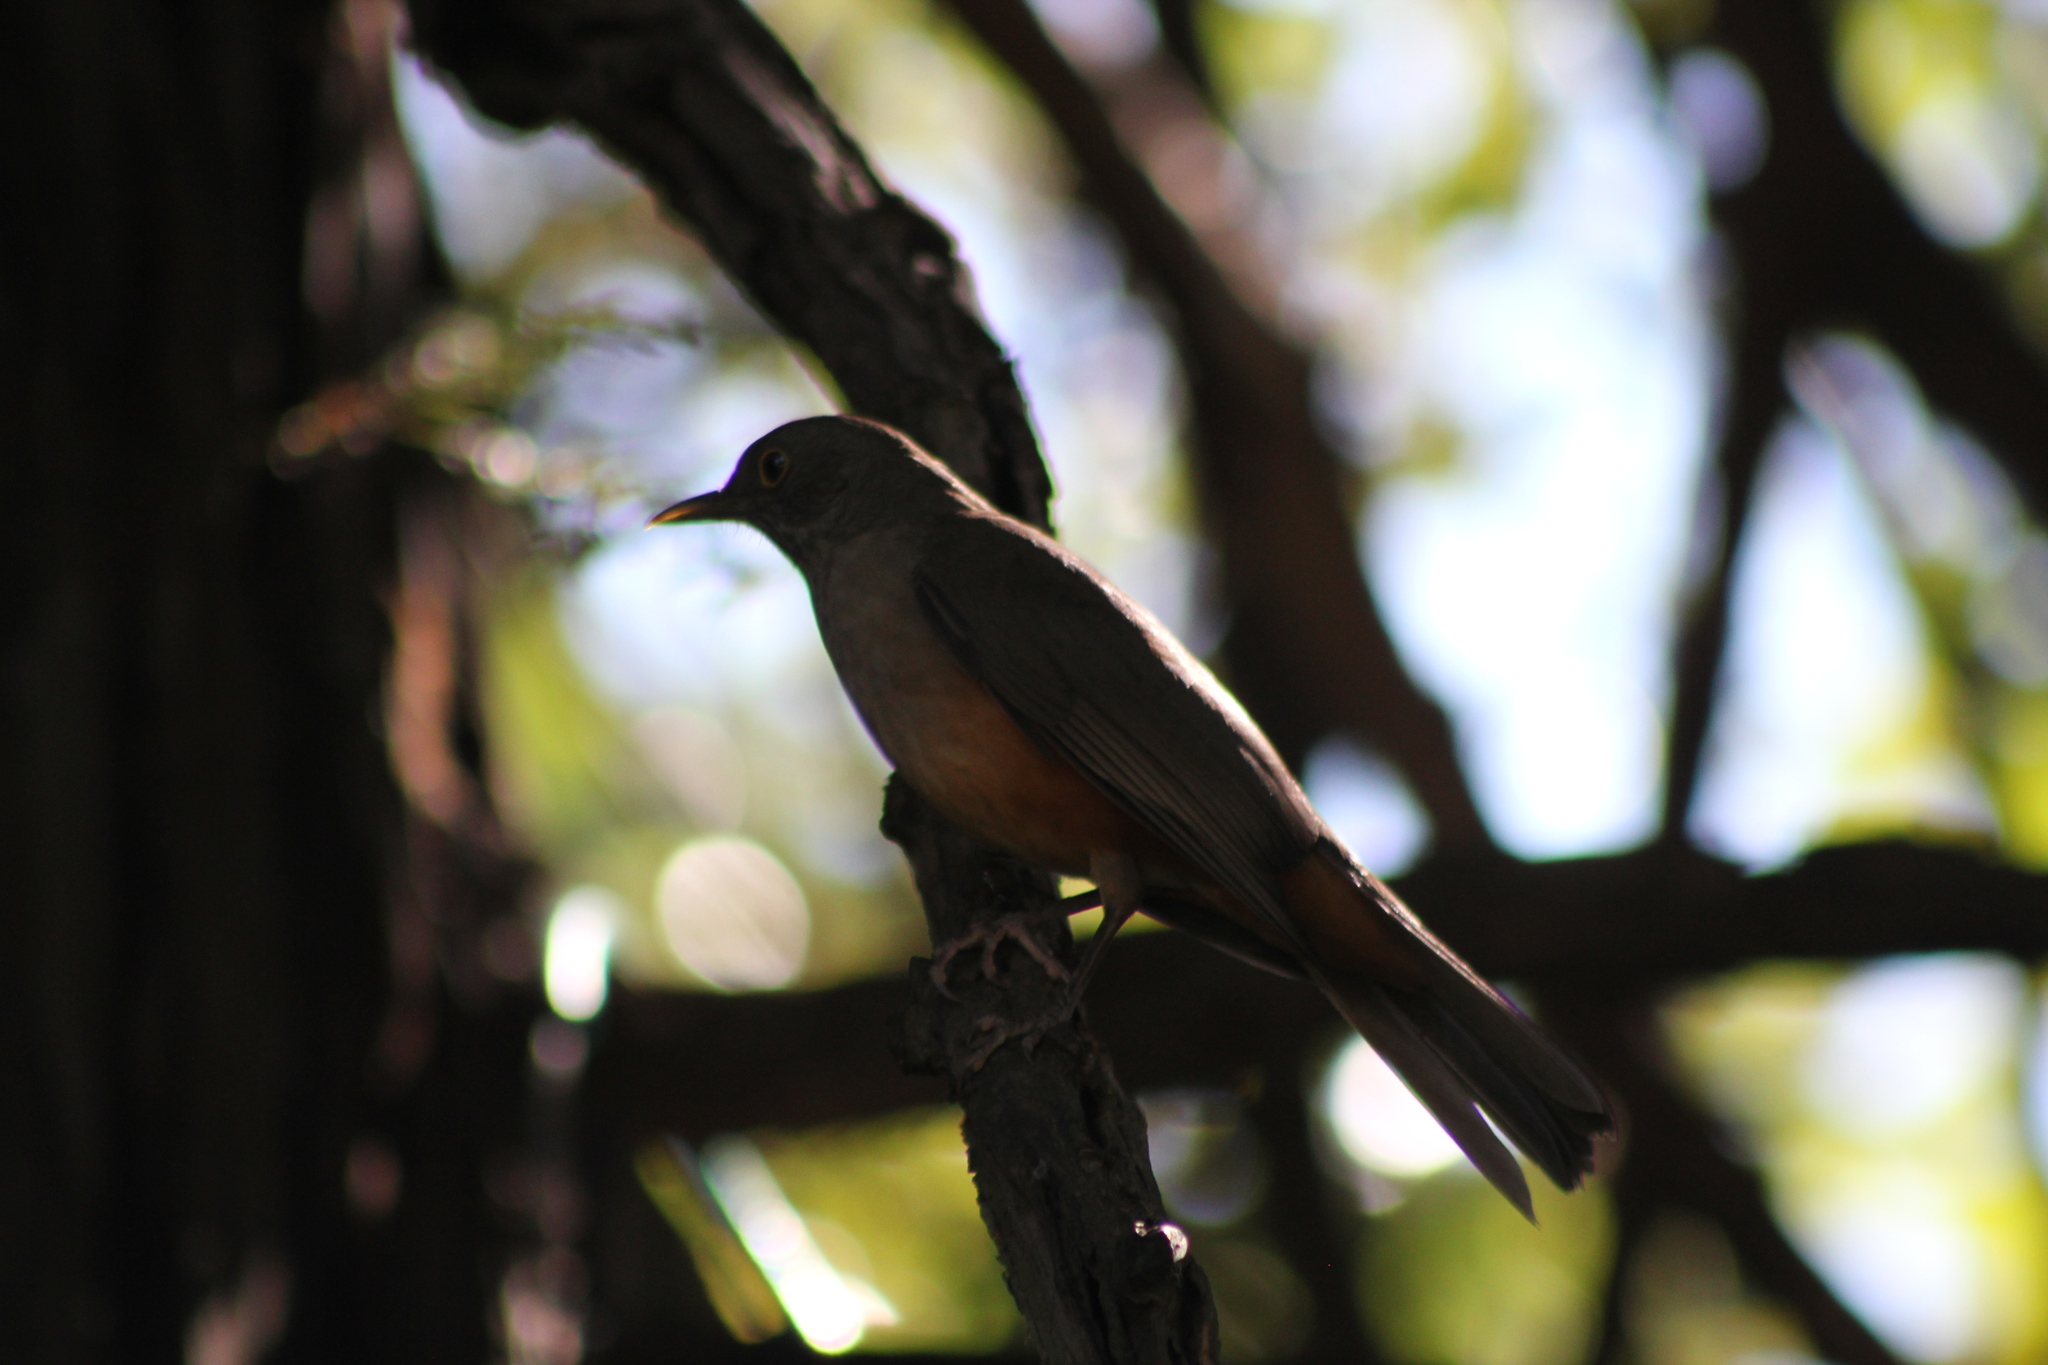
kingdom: Animalia
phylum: Chordata
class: Aves
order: Passeriformes
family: Turdidae
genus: Turdus
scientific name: Turdus rufiventris
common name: Rufous-bellied thrush
